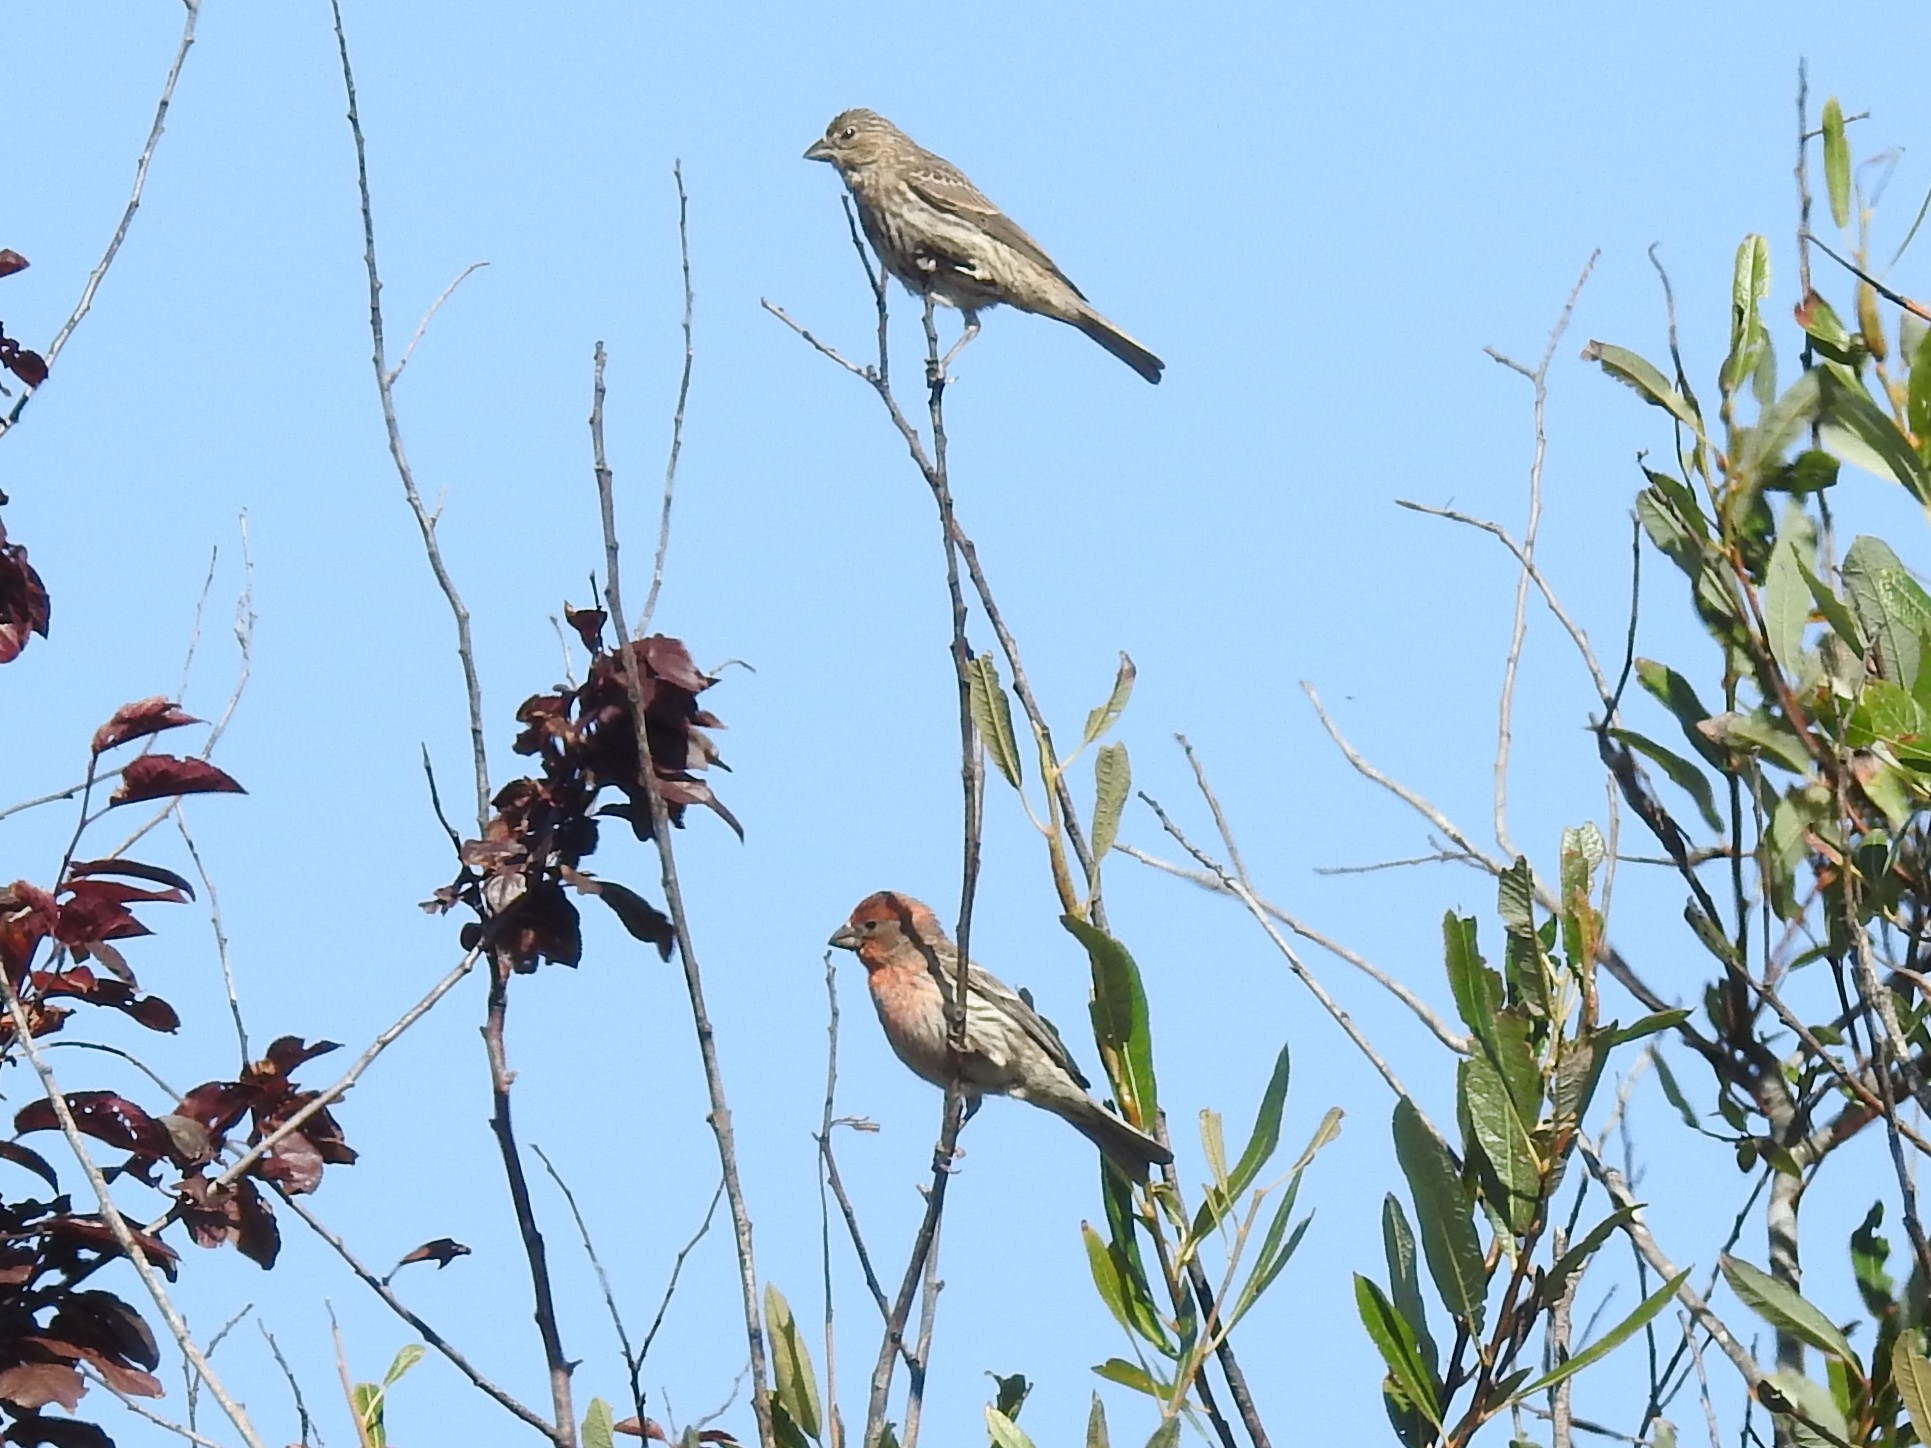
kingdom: Animalia
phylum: Chordata
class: Aves
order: Passeriformes
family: Fringillidae
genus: Haemorhous
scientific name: Haemorhous mexicanus
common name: House finch
